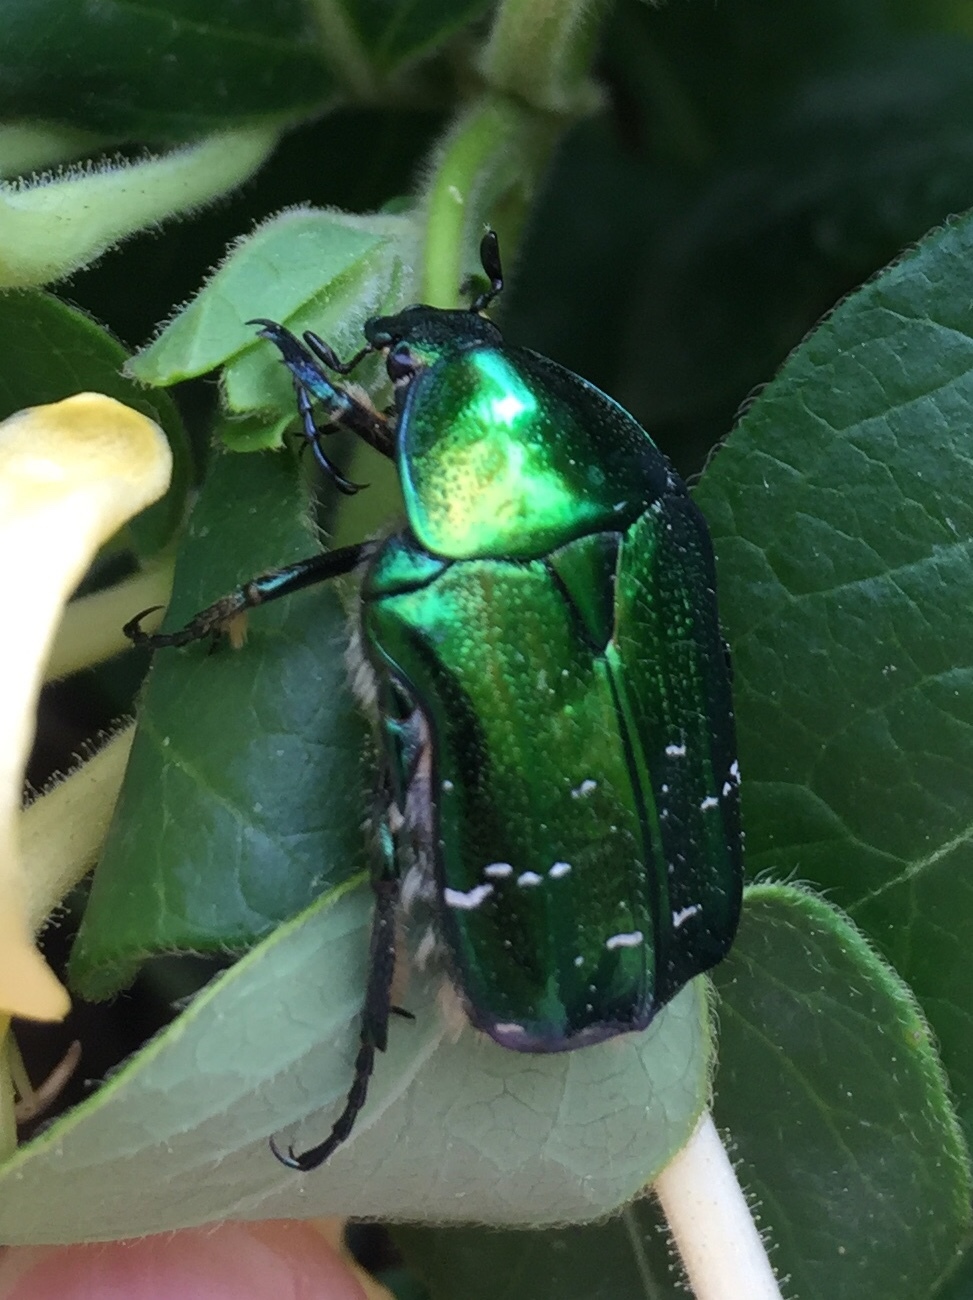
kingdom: Animalia
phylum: Arthropoda
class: Insecta
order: Coleoptera
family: Scarabaeidae
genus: Cetonia
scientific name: Cetonia aurata
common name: Rose chafer
